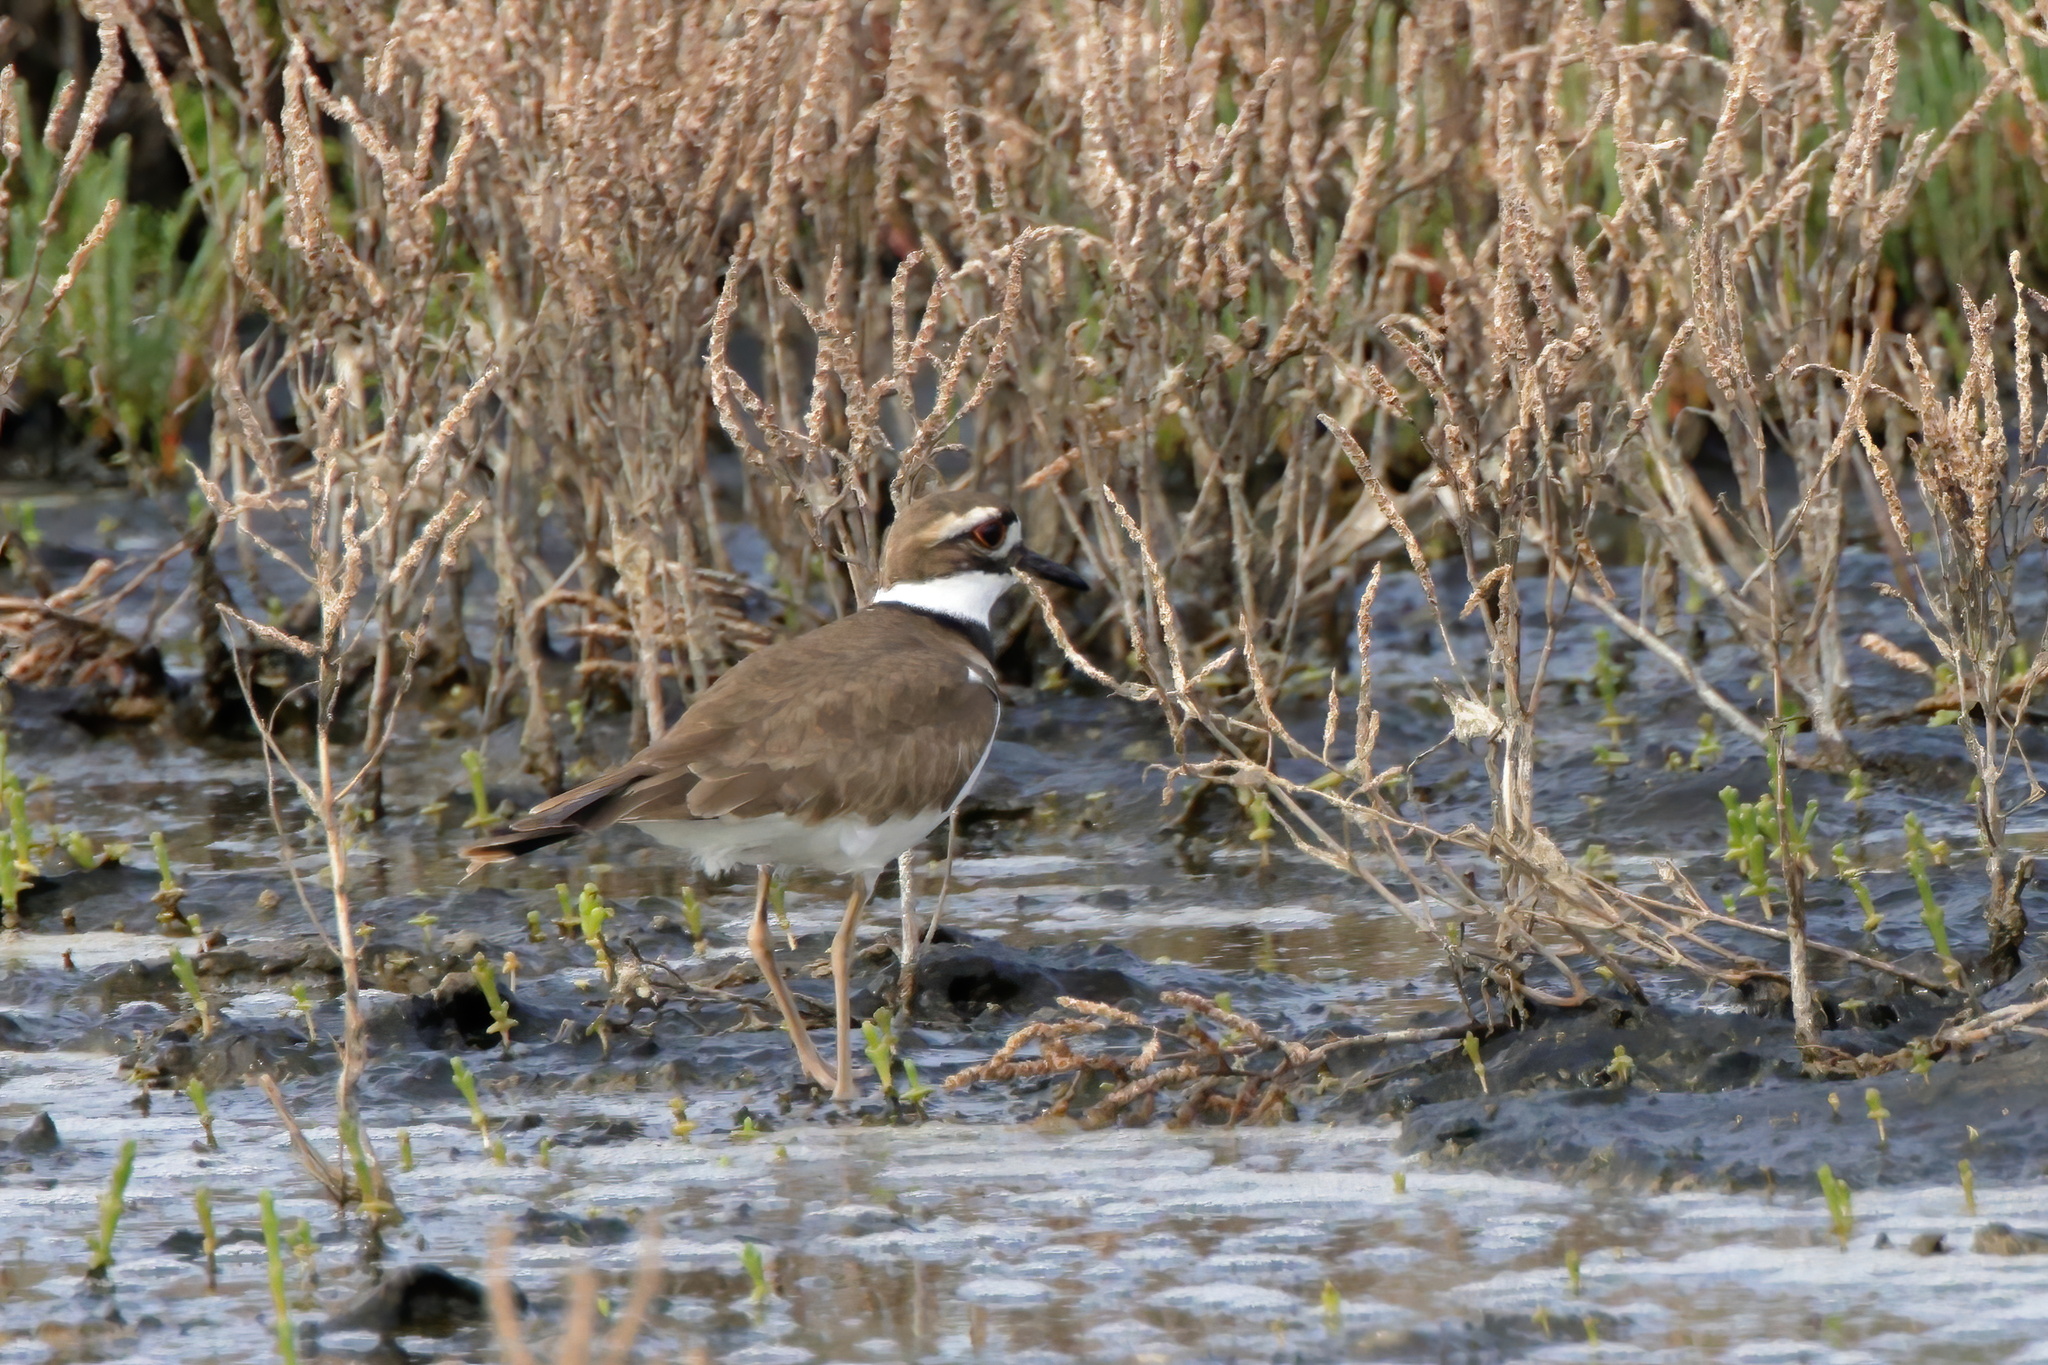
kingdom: Animalia
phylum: Chordata
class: Aves
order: Charadriiformes
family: Charadriidae
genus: Charadrius
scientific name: Charadrius vociferus
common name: Killdeer
